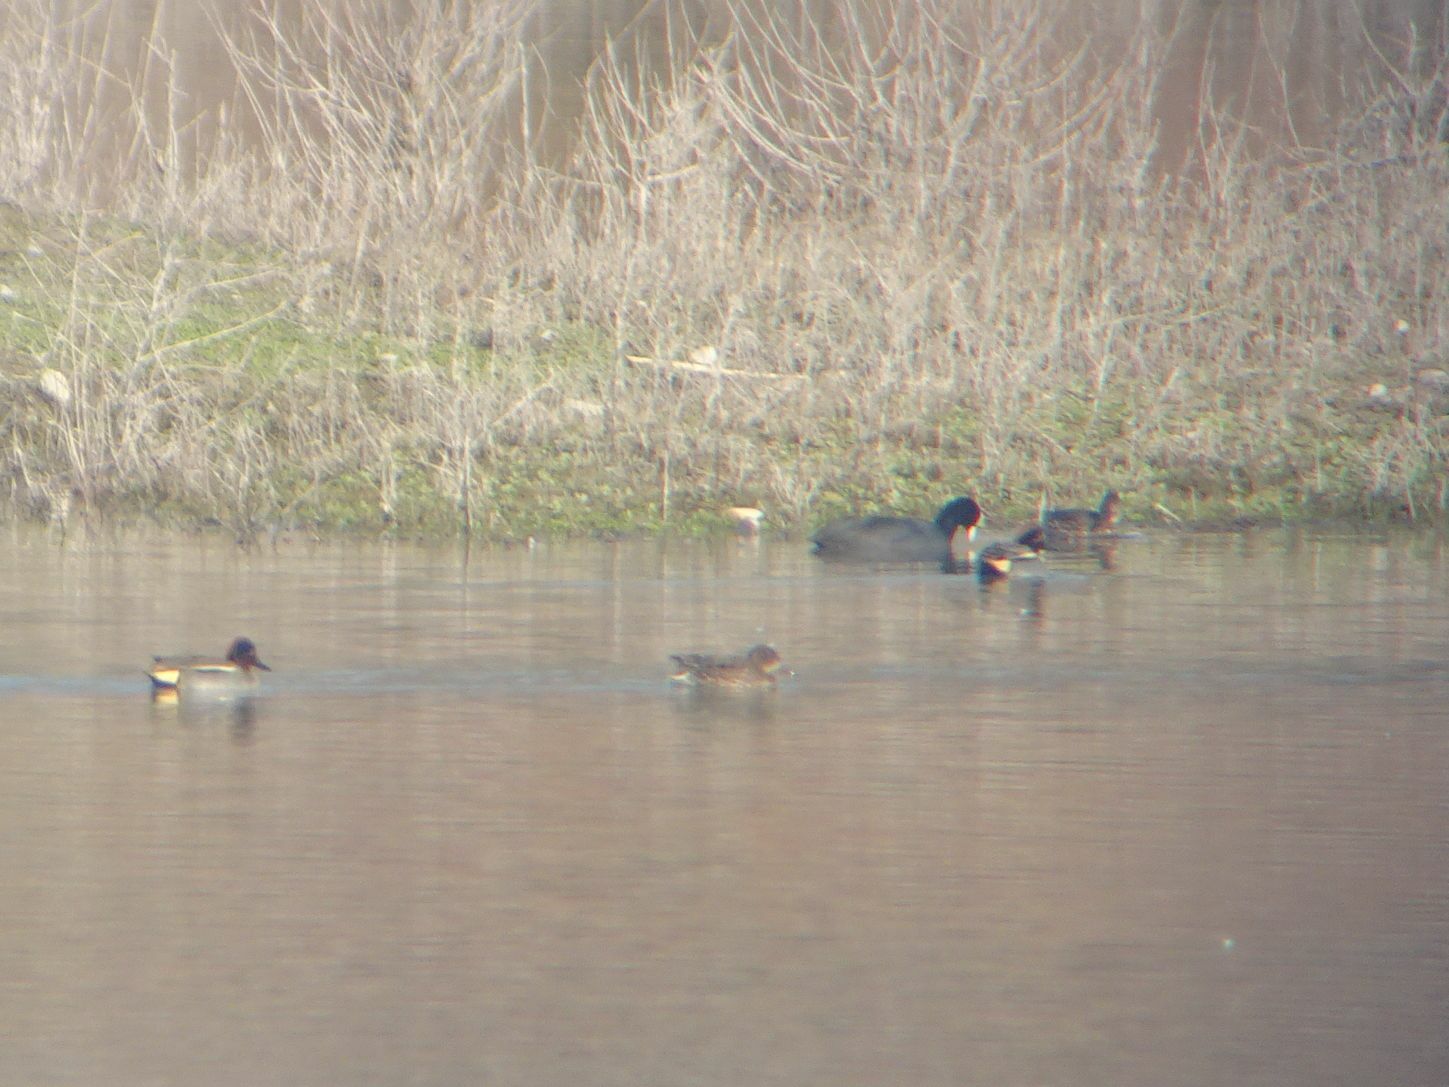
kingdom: Animalia
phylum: Chordata
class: Aves
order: Anseriformes
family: Anatidae
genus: Anas
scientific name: Anas crecca
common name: Eurasian teal
